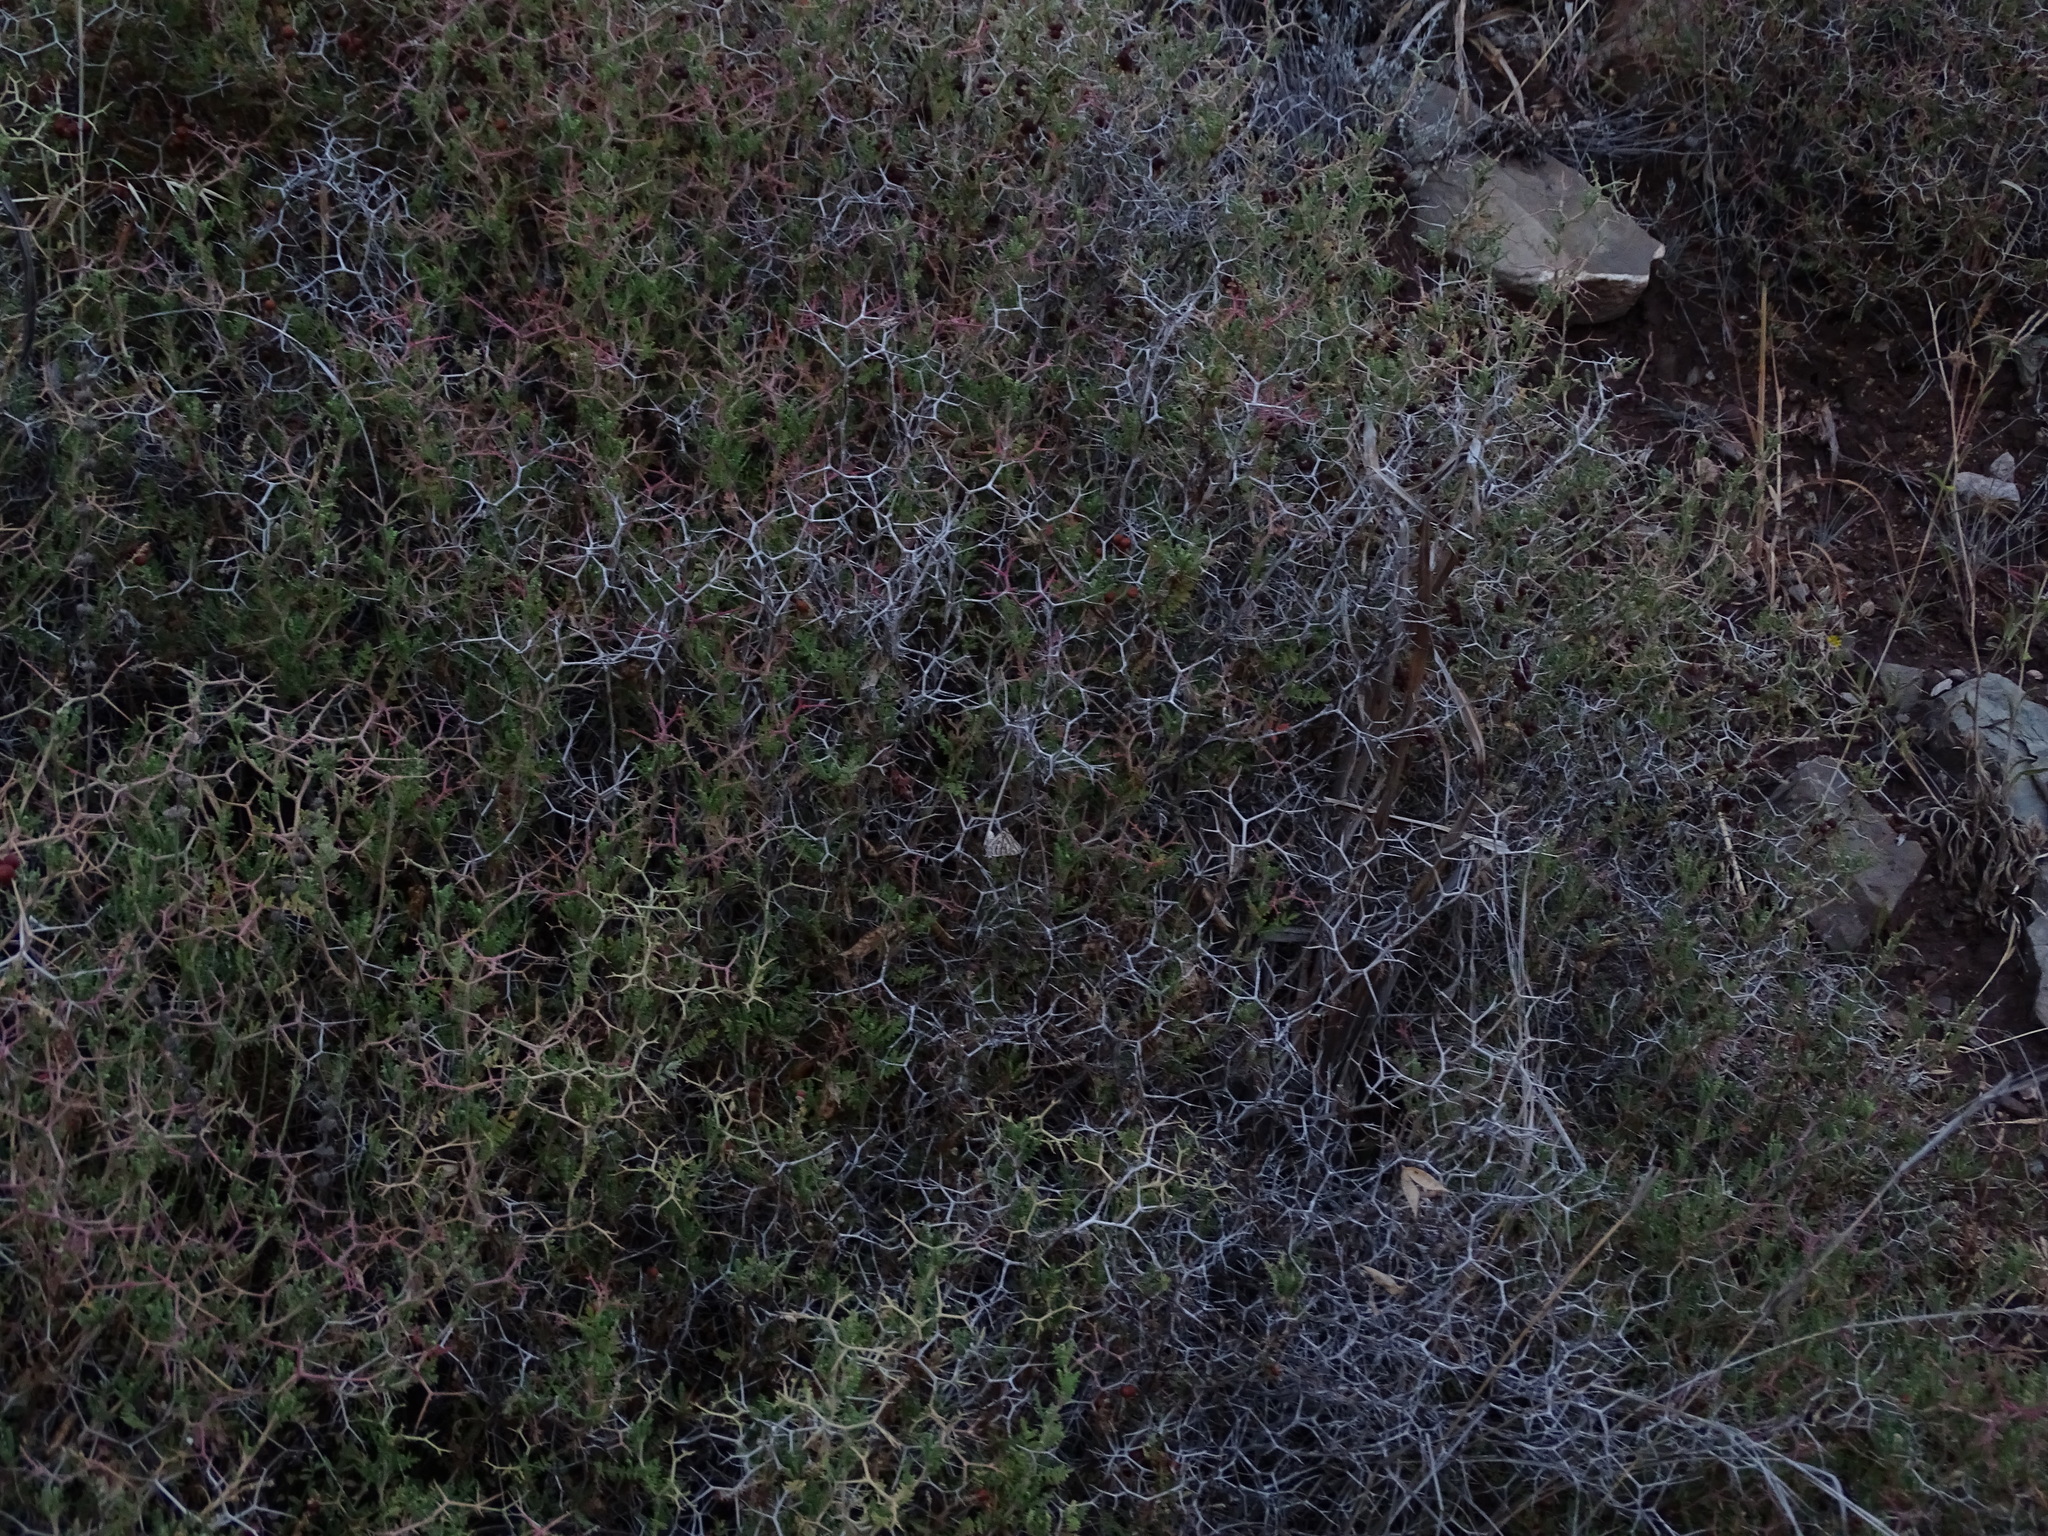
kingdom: Animalia
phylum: Arthropoda
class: Insecta
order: Lepidoptera
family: Lycaenidae
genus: Cigaritis
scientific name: Cigaritis acamas
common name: Levantine leopard
